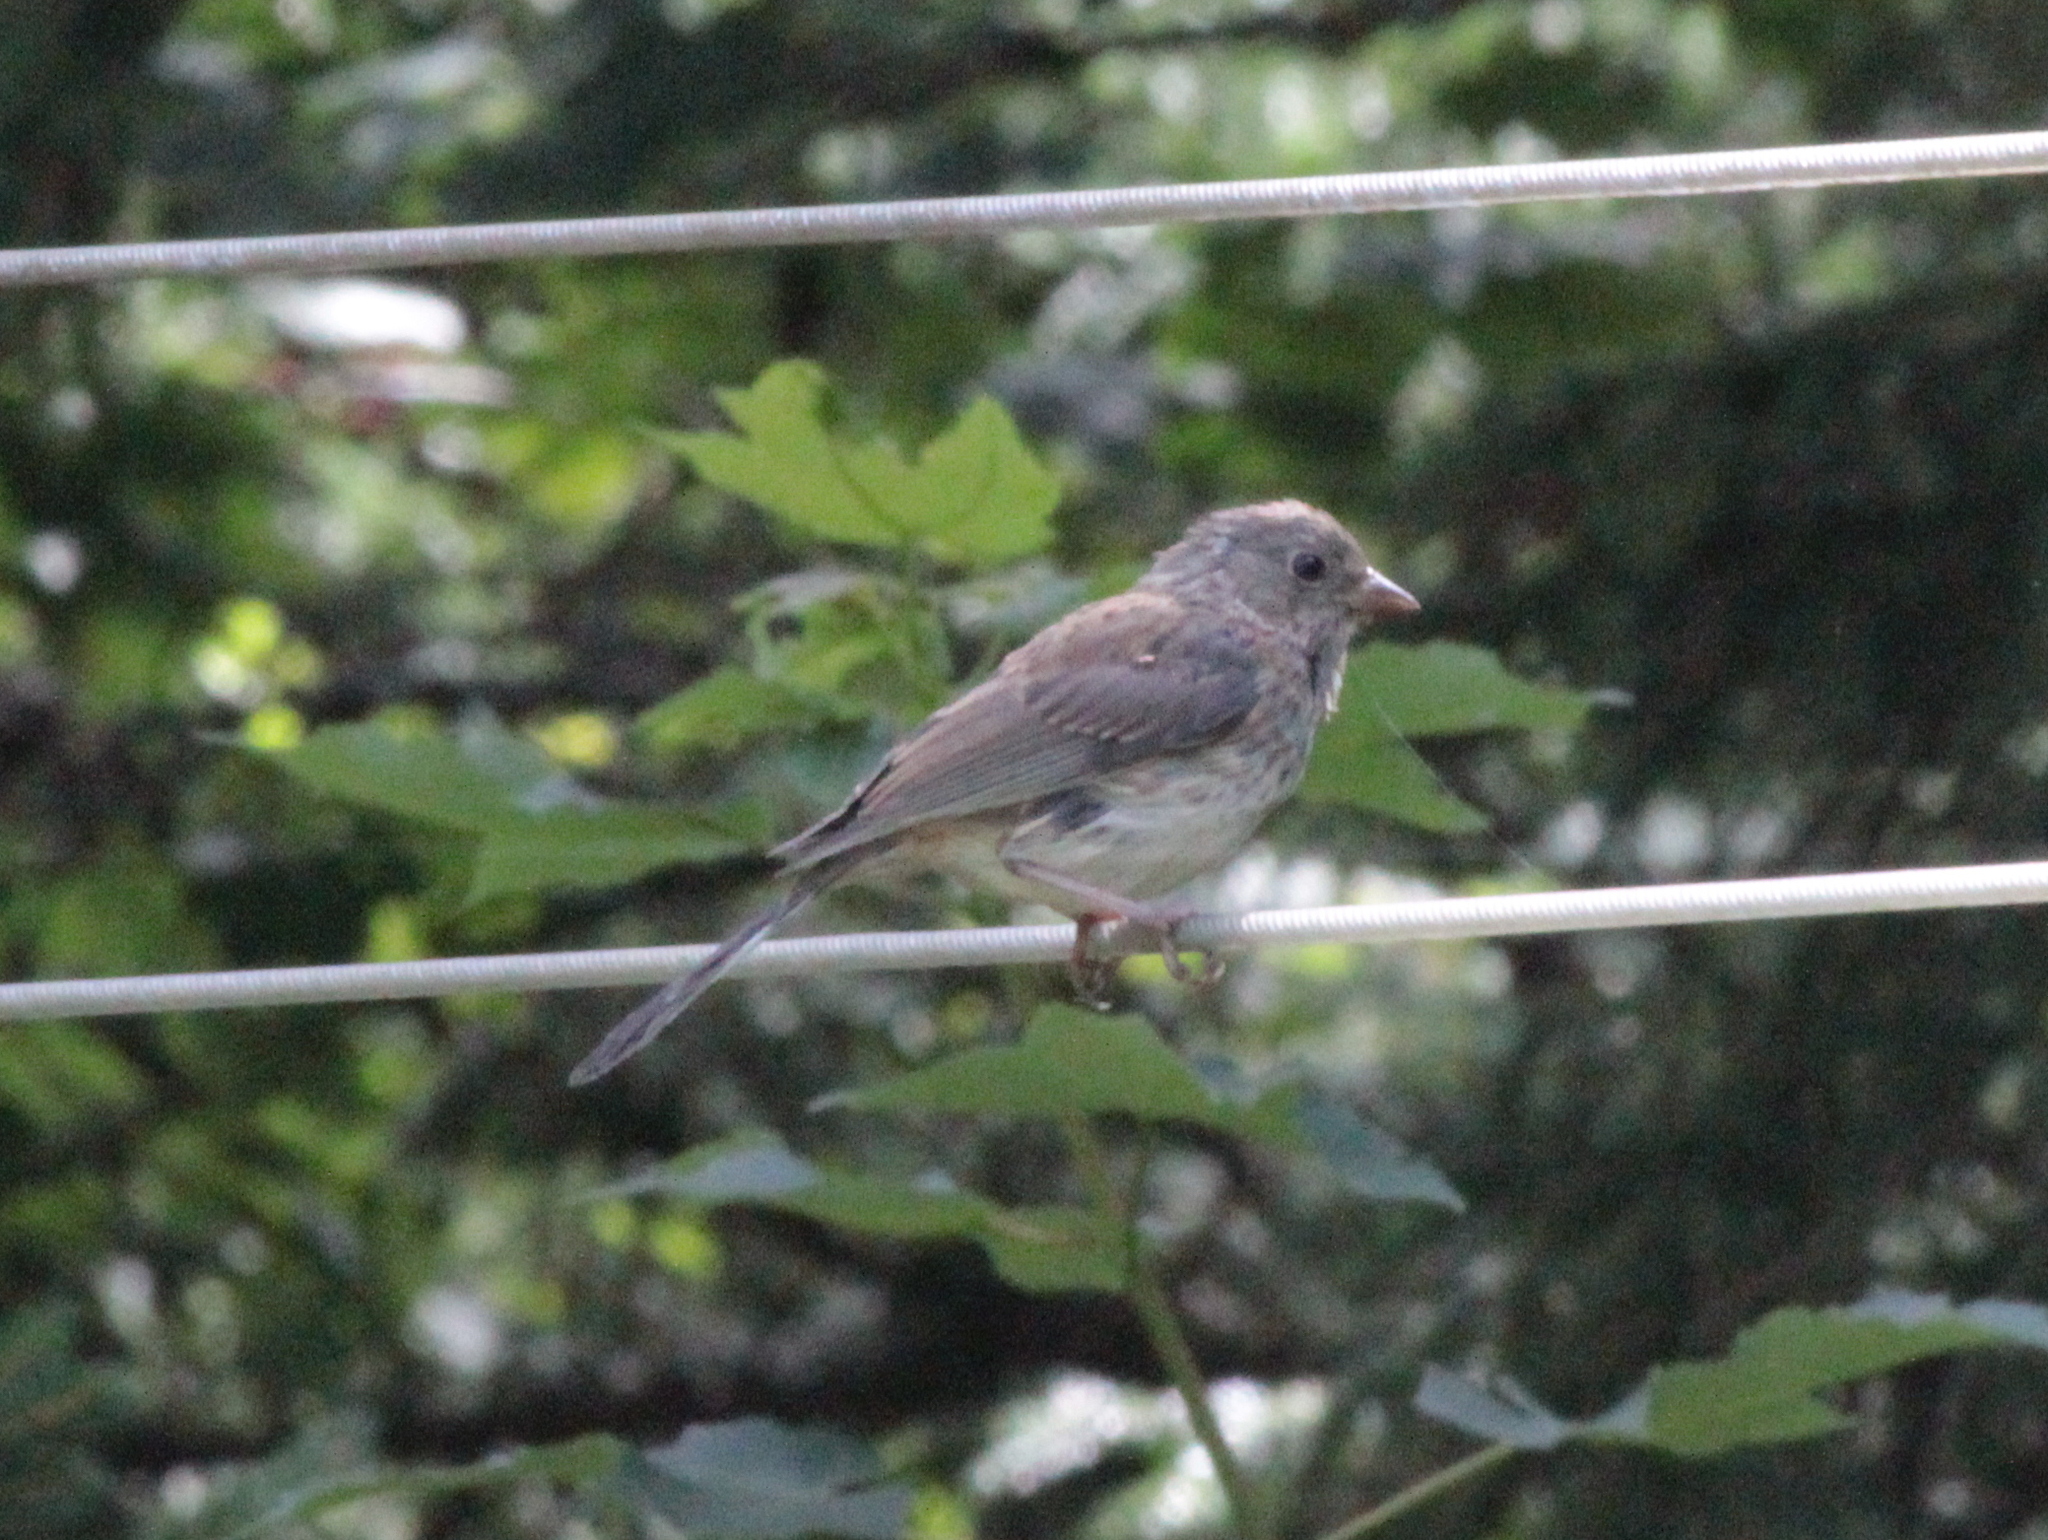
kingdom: Animalia
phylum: Chordata
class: Aves
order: Passeriformes
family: Passerellidae
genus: Junco
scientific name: Junco hyemalis
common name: Dark-eyed junco
